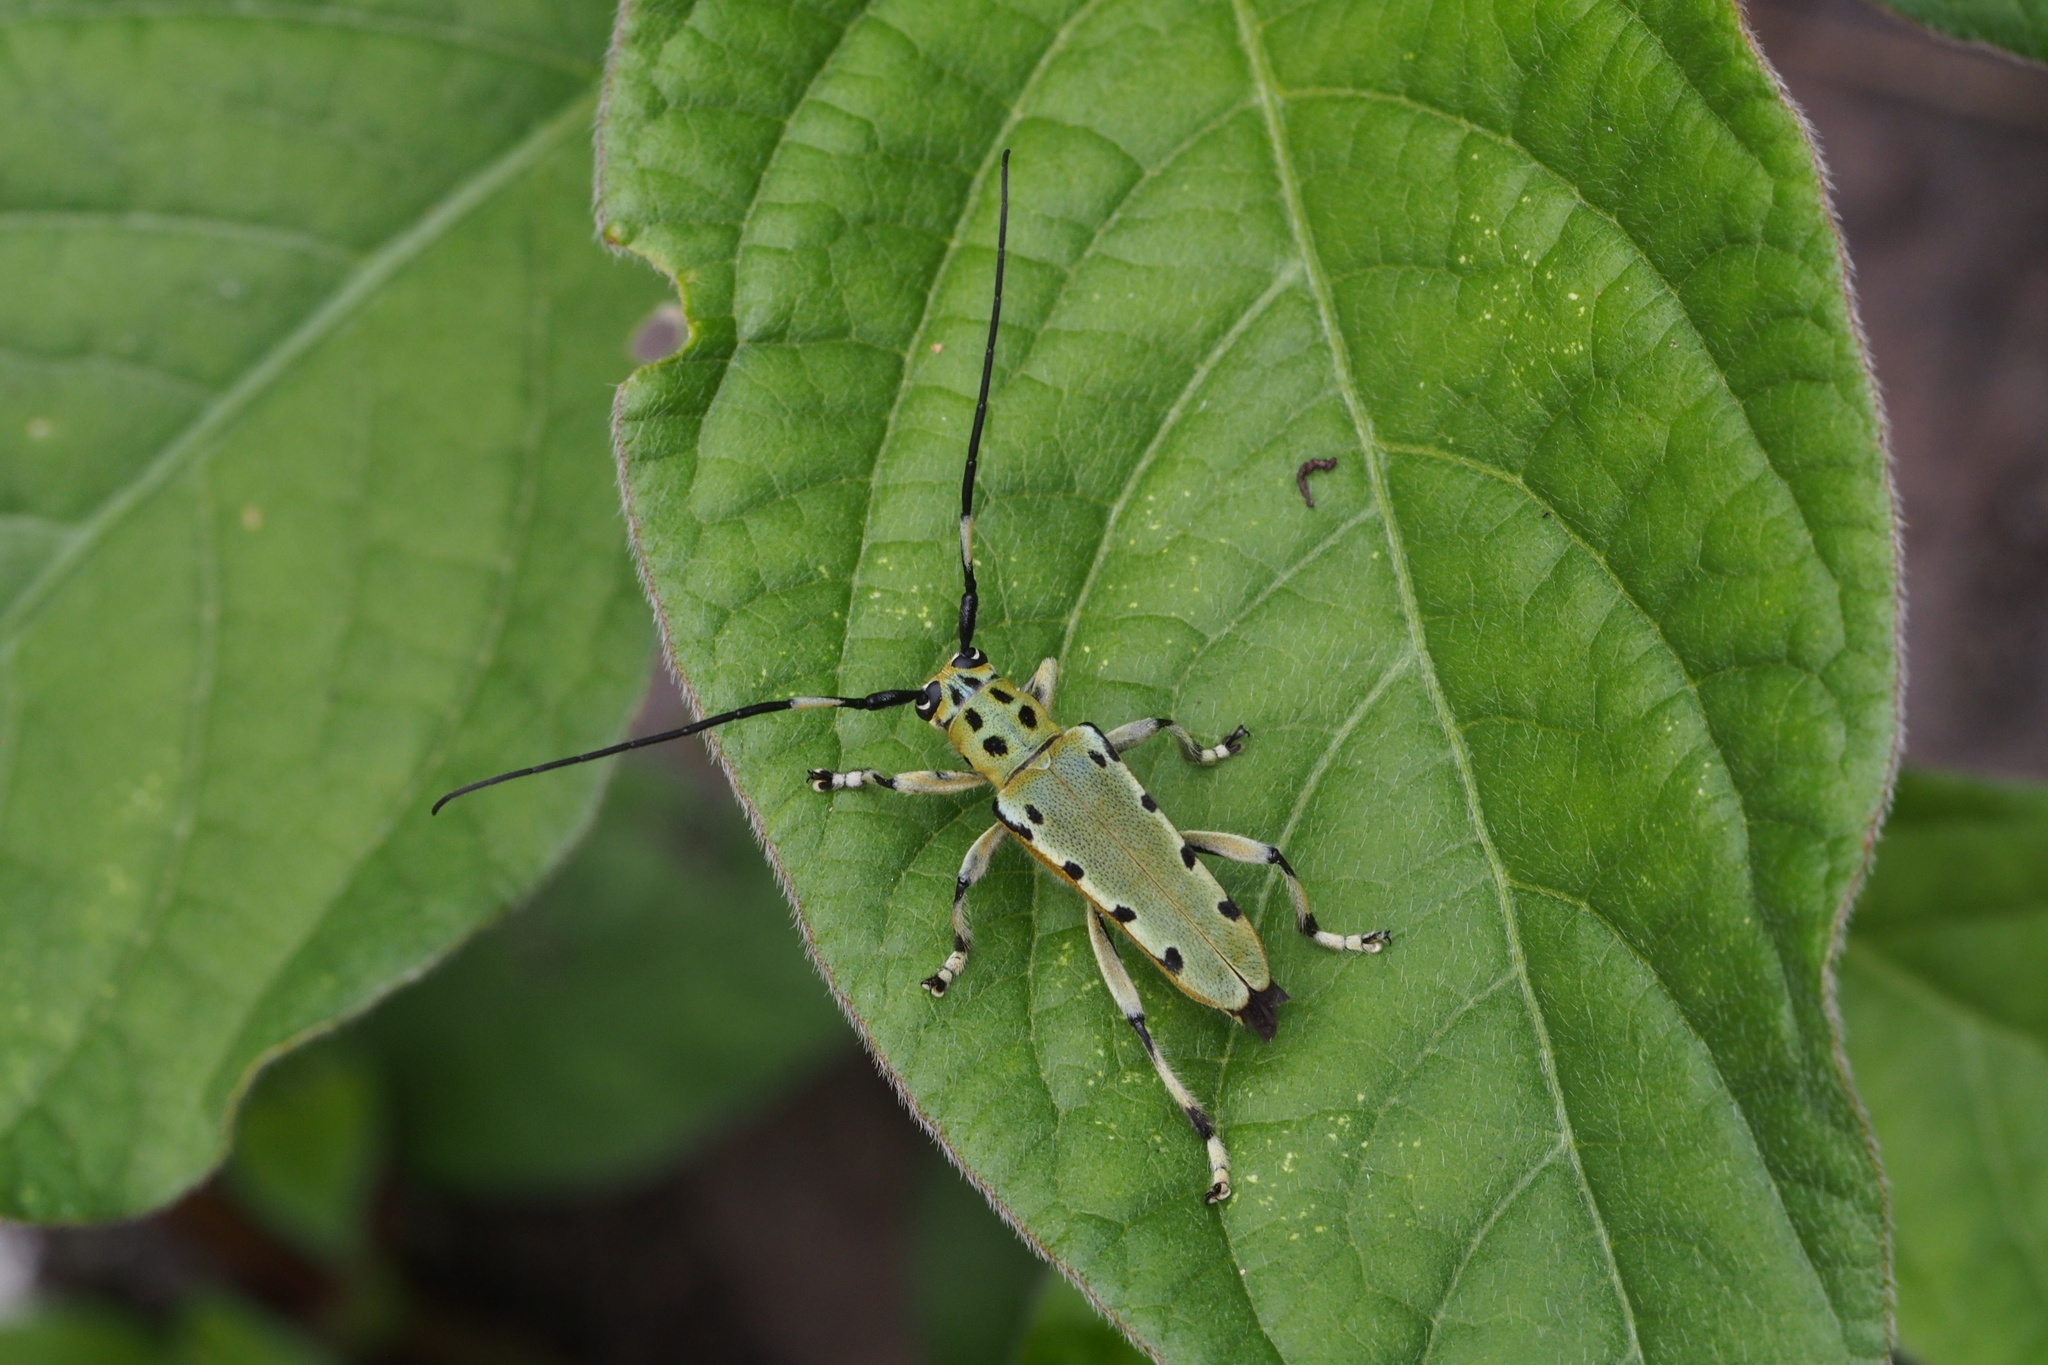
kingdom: Animalia
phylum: Arthropoda
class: Insecta
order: Coleoptera
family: Cerambycidae
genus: Eutetrapha
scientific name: Eutetrapha ocelota
